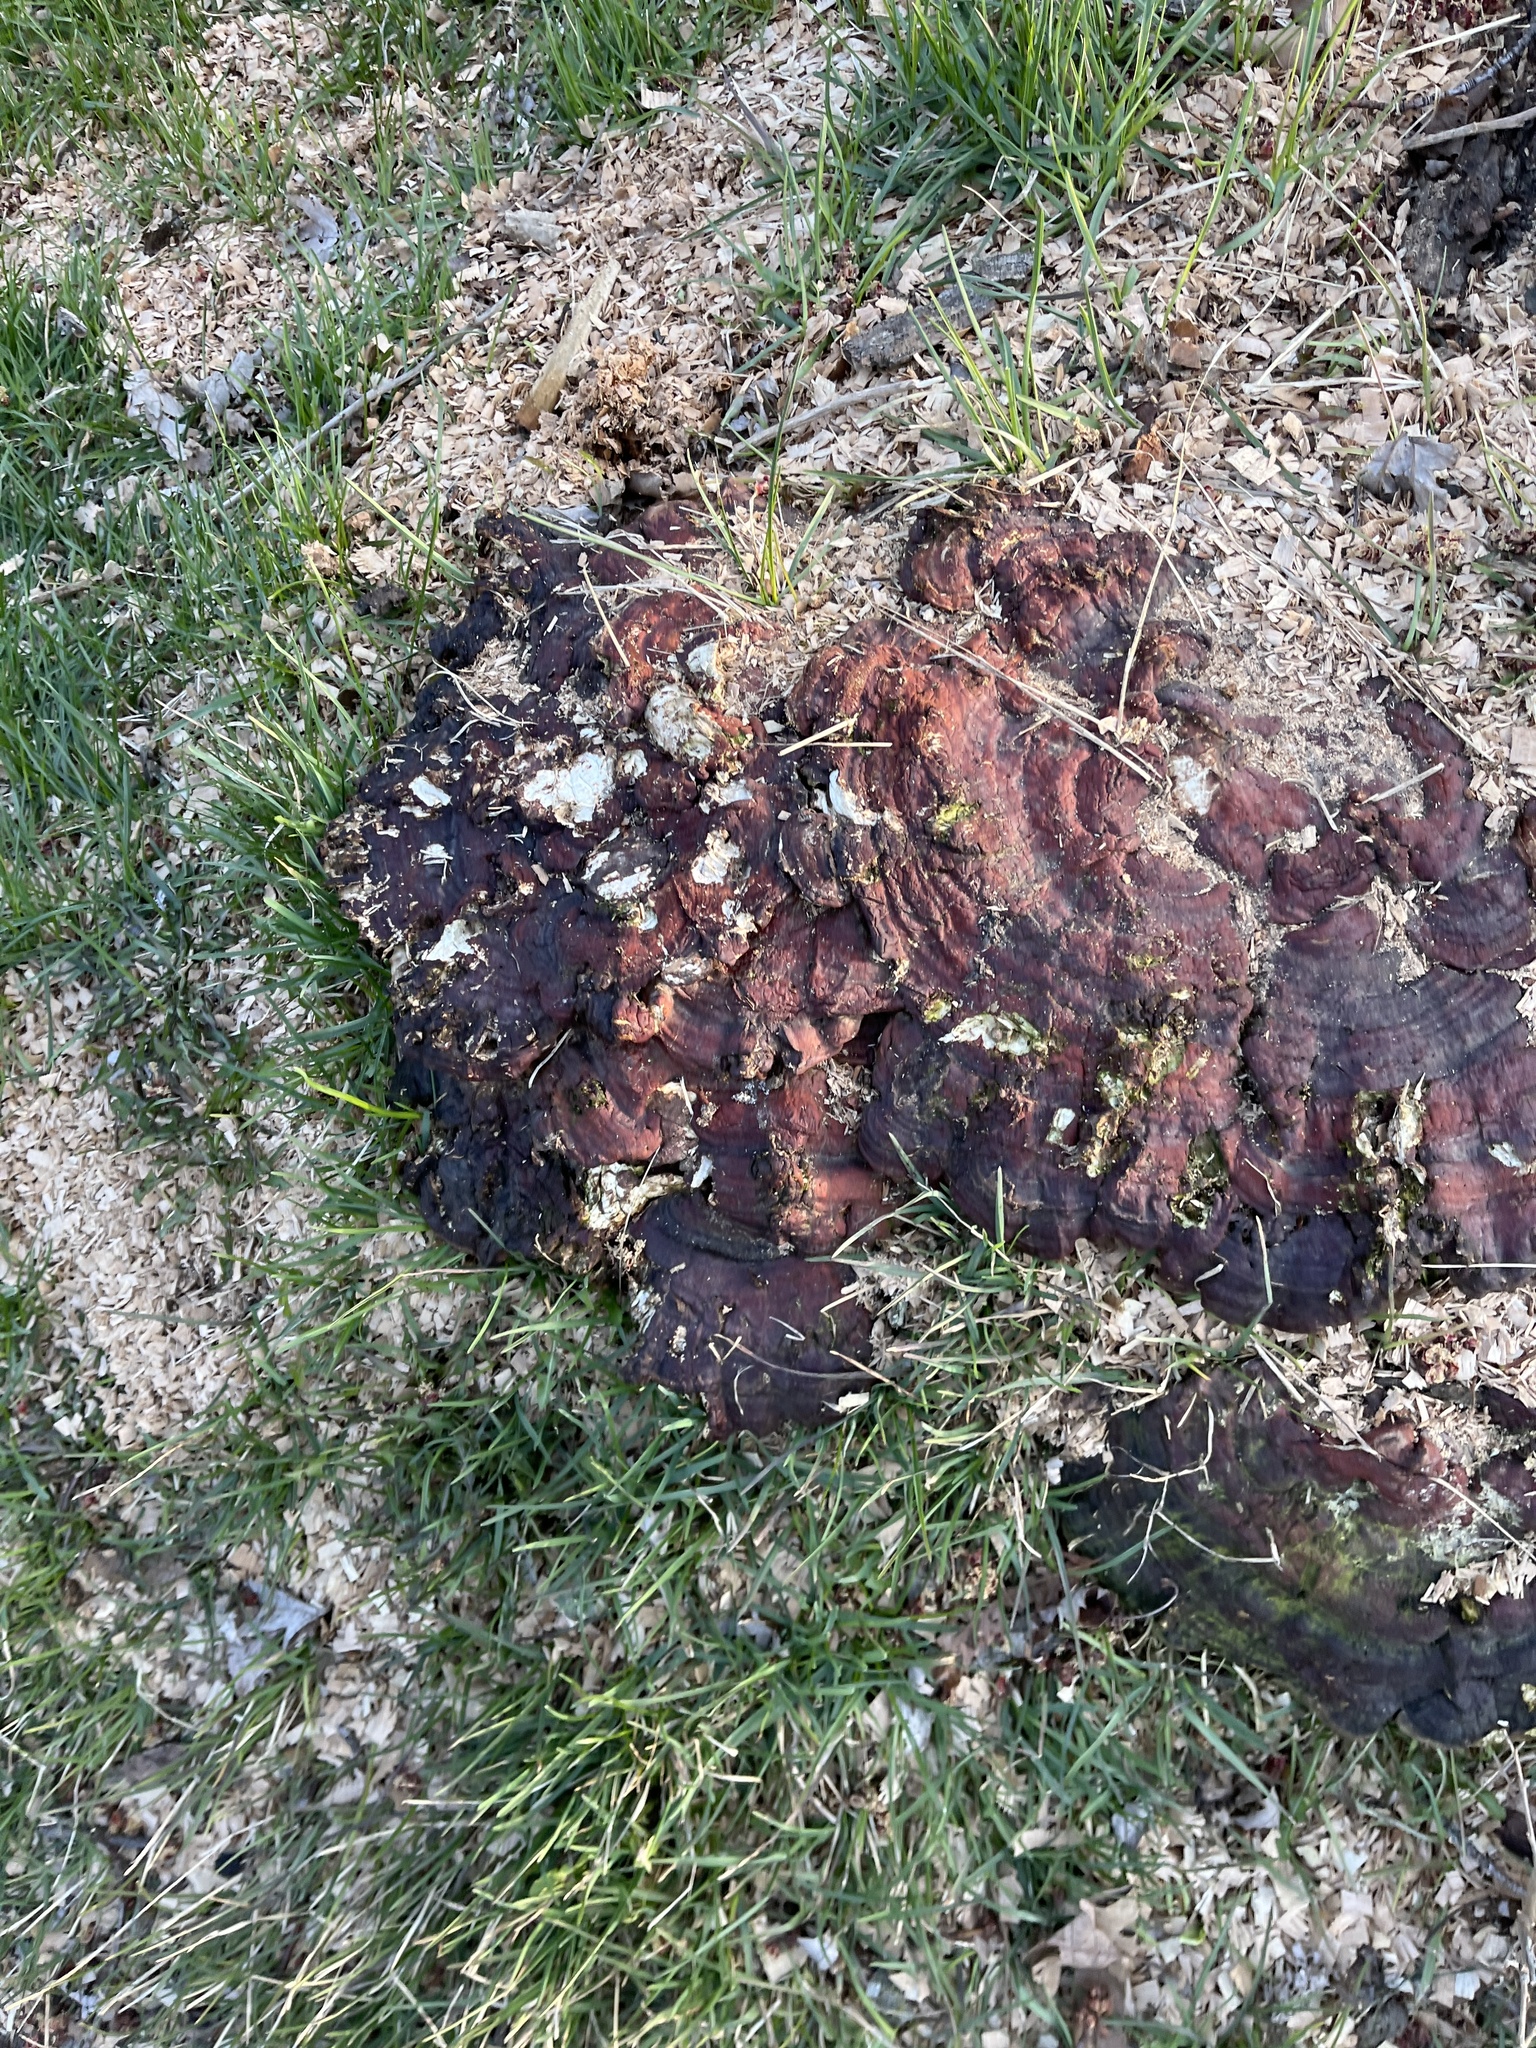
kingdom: Fungi
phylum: Basidiomycota
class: Agaricomycetes
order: Polyporales
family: Polyporaceae
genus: Ganoderma
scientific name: Ganoderma resinaceum
